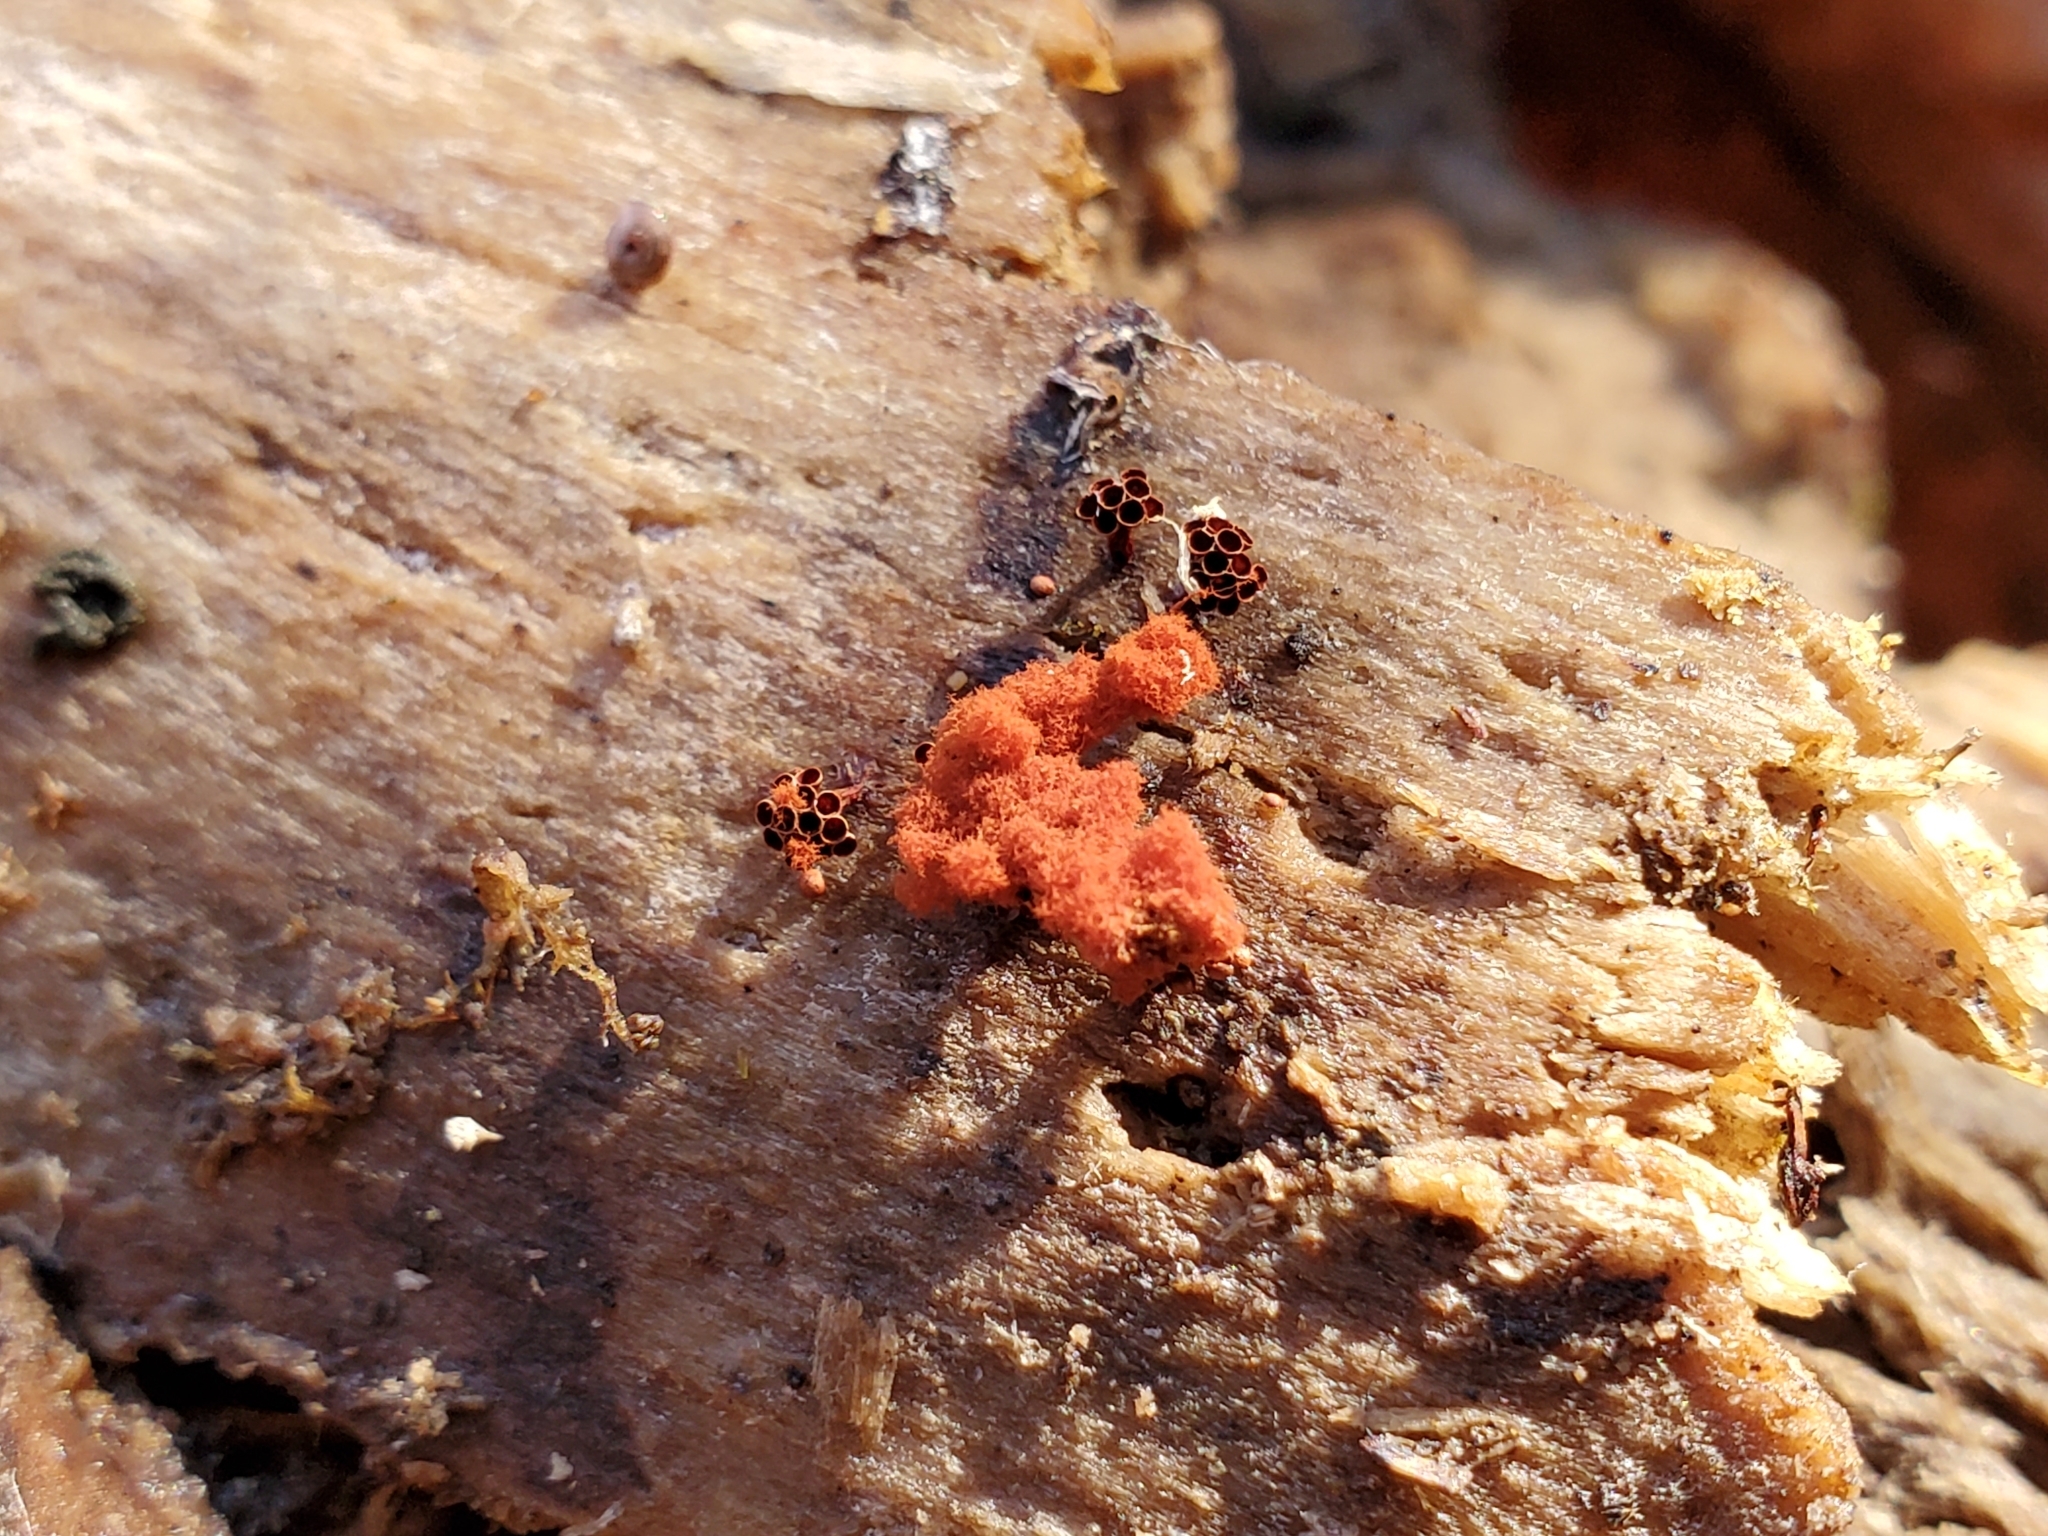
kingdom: Protozoa
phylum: Mycetozoa
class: Myxomycetes
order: Trichiales
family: Trichiaceae
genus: Metatrichia
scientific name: Metatrichia vesparia
